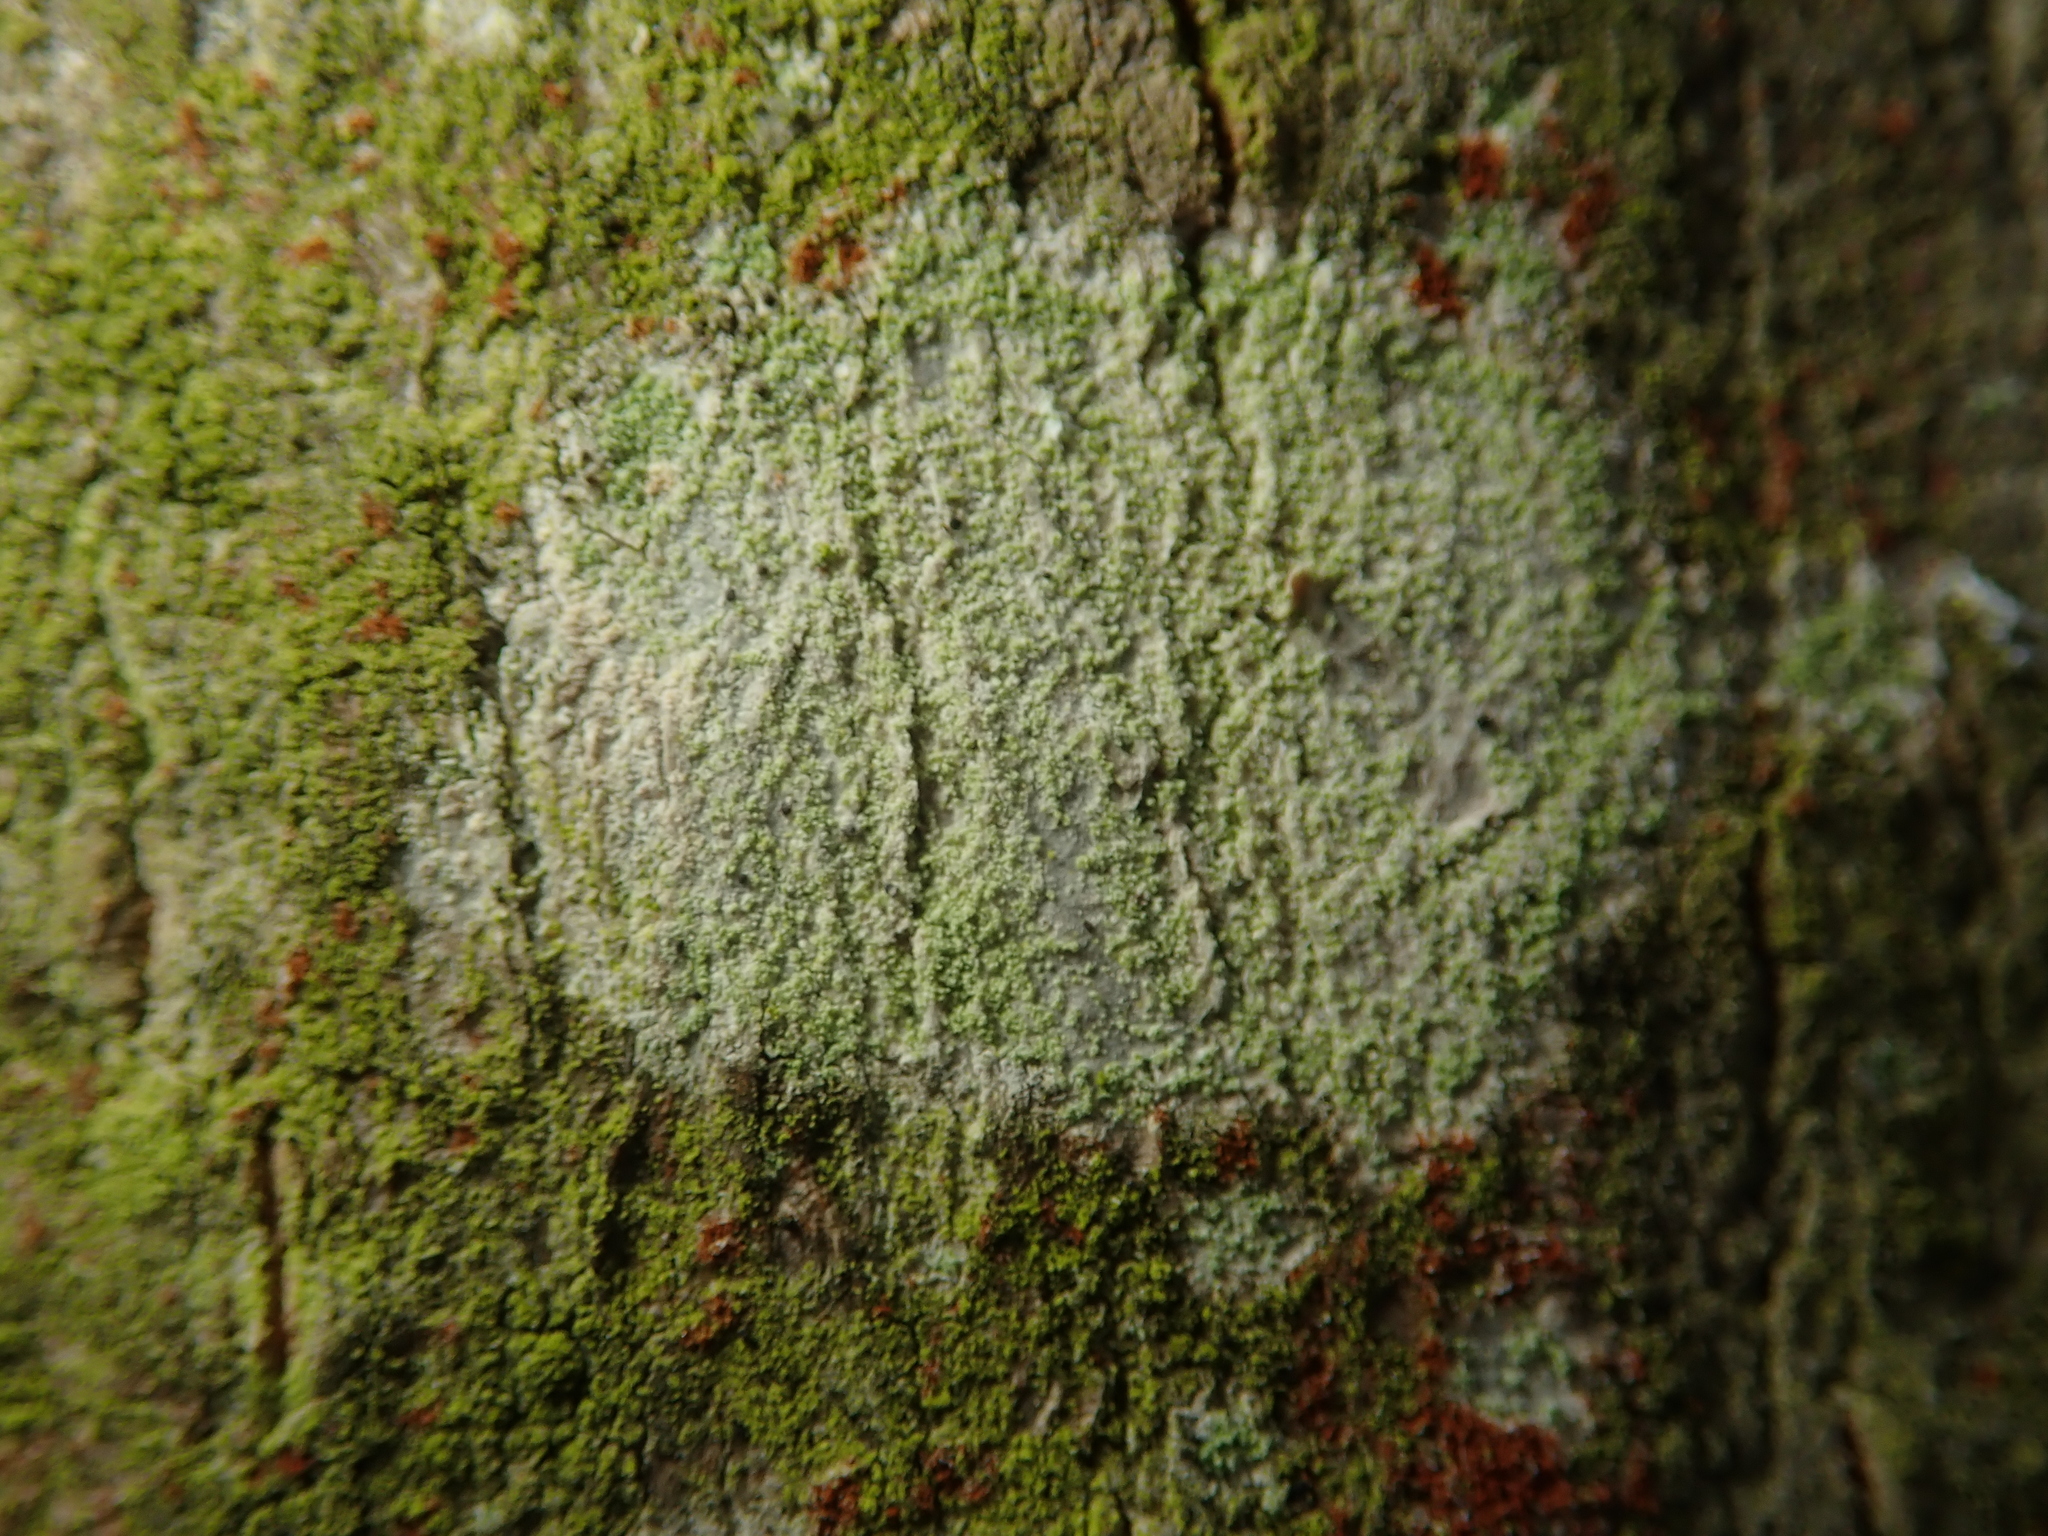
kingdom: Fungi
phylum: Ascomycota
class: Lecanoromycetes
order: Ostropales
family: Phlyctidaceae
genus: Phlyctis
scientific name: Phlyctis argena
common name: Whitewash lichen
